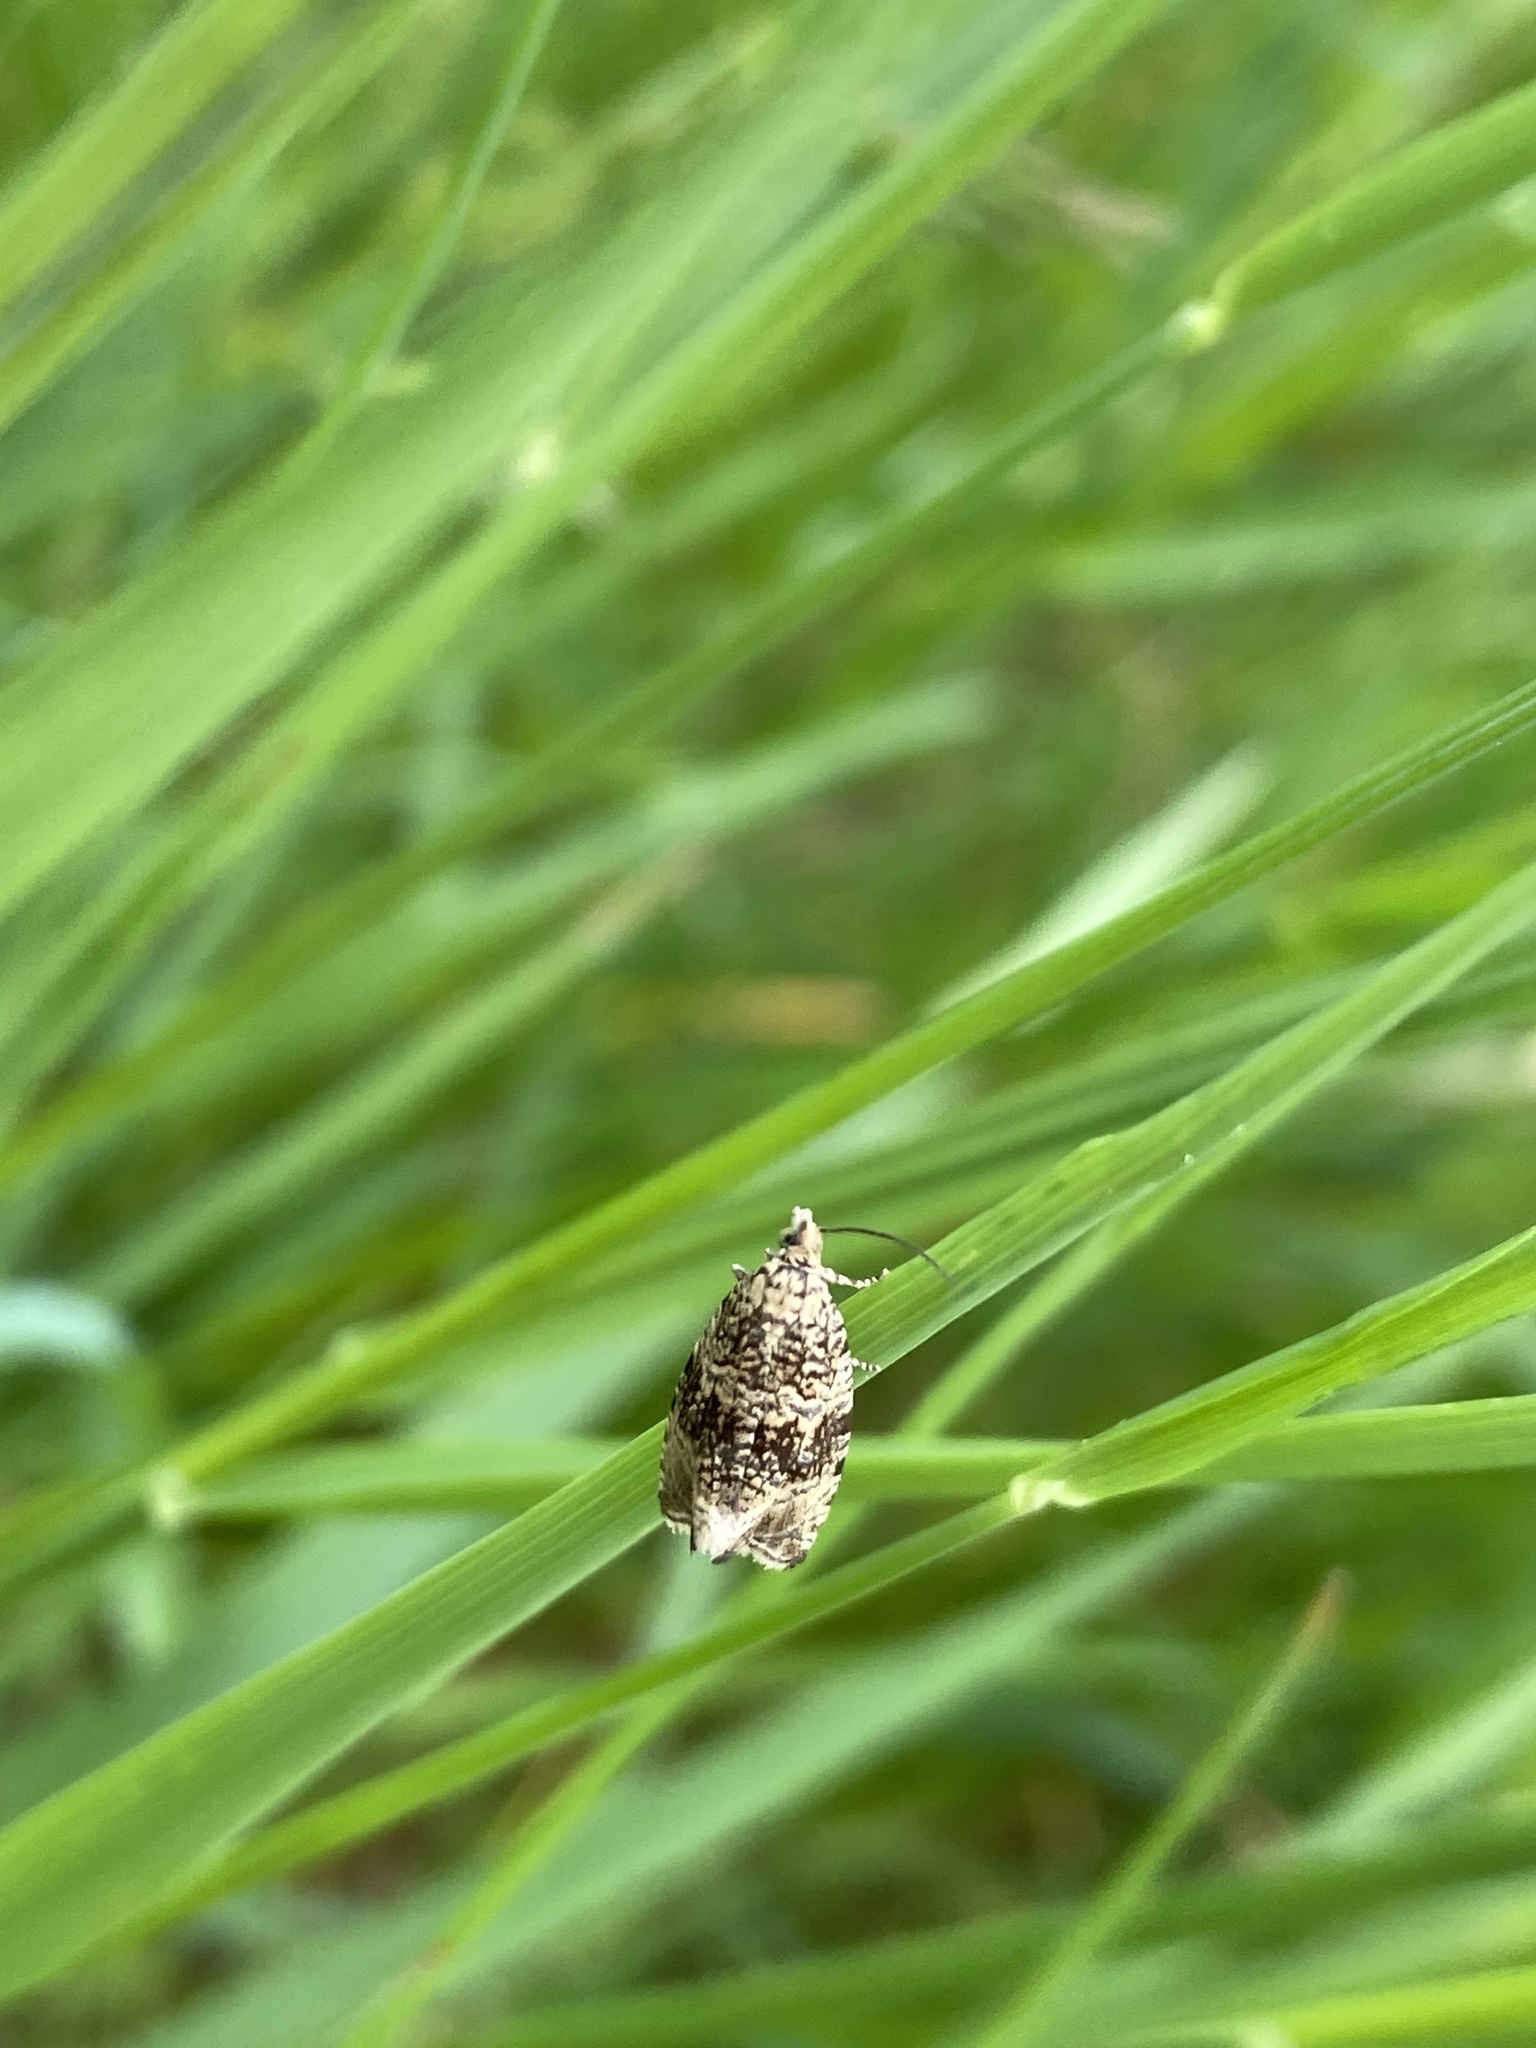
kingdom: Animalia
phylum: Arthropoda
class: Insecta
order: Lepidoptera
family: Tortricidae
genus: Syricoris
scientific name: Syricoris lacunana
